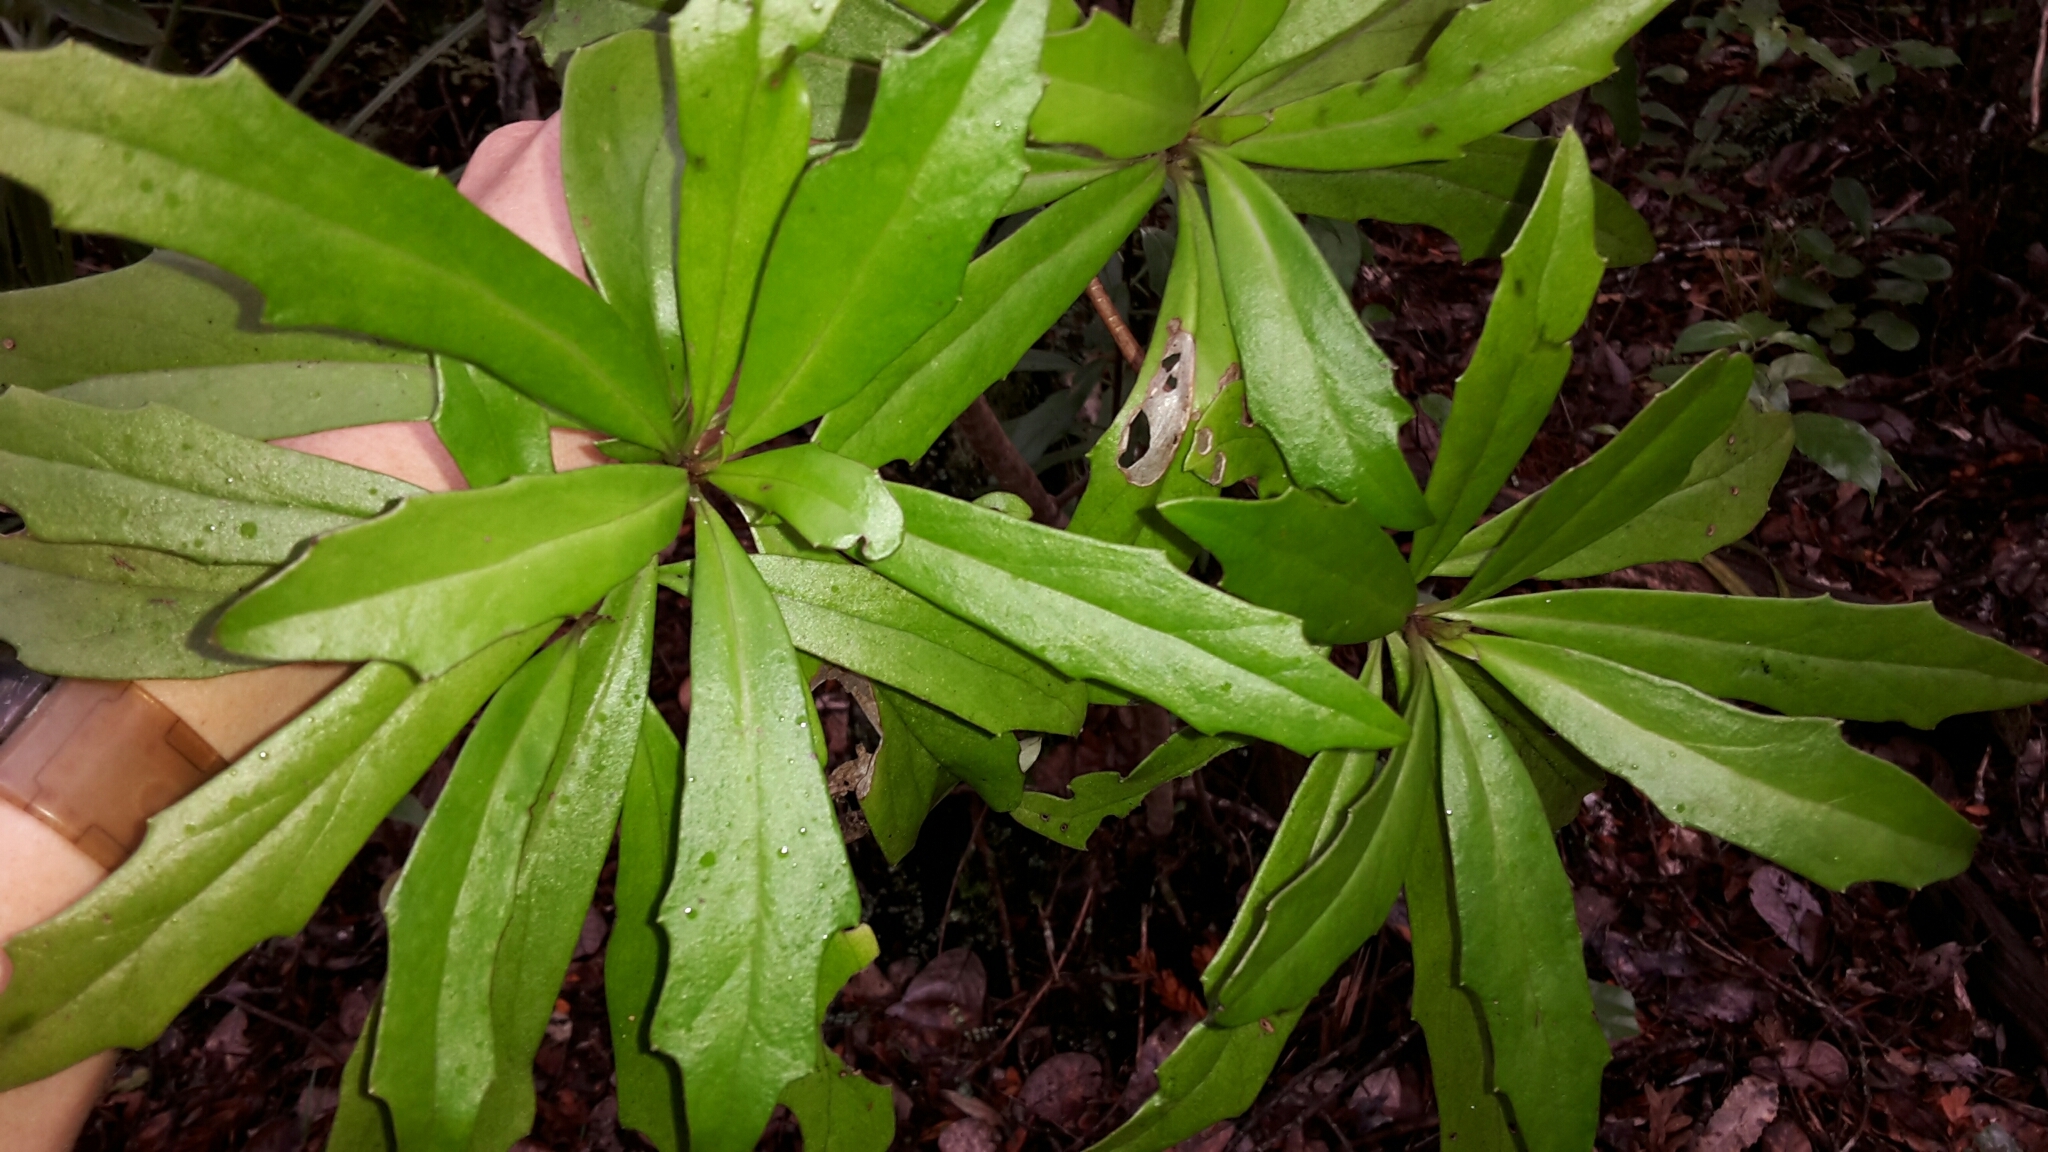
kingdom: Plantae
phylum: Tracheophyta
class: Magnoliopsida
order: Asterales
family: Asteraceae
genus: Brachyglottis
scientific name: Brachyglottis kirkii
